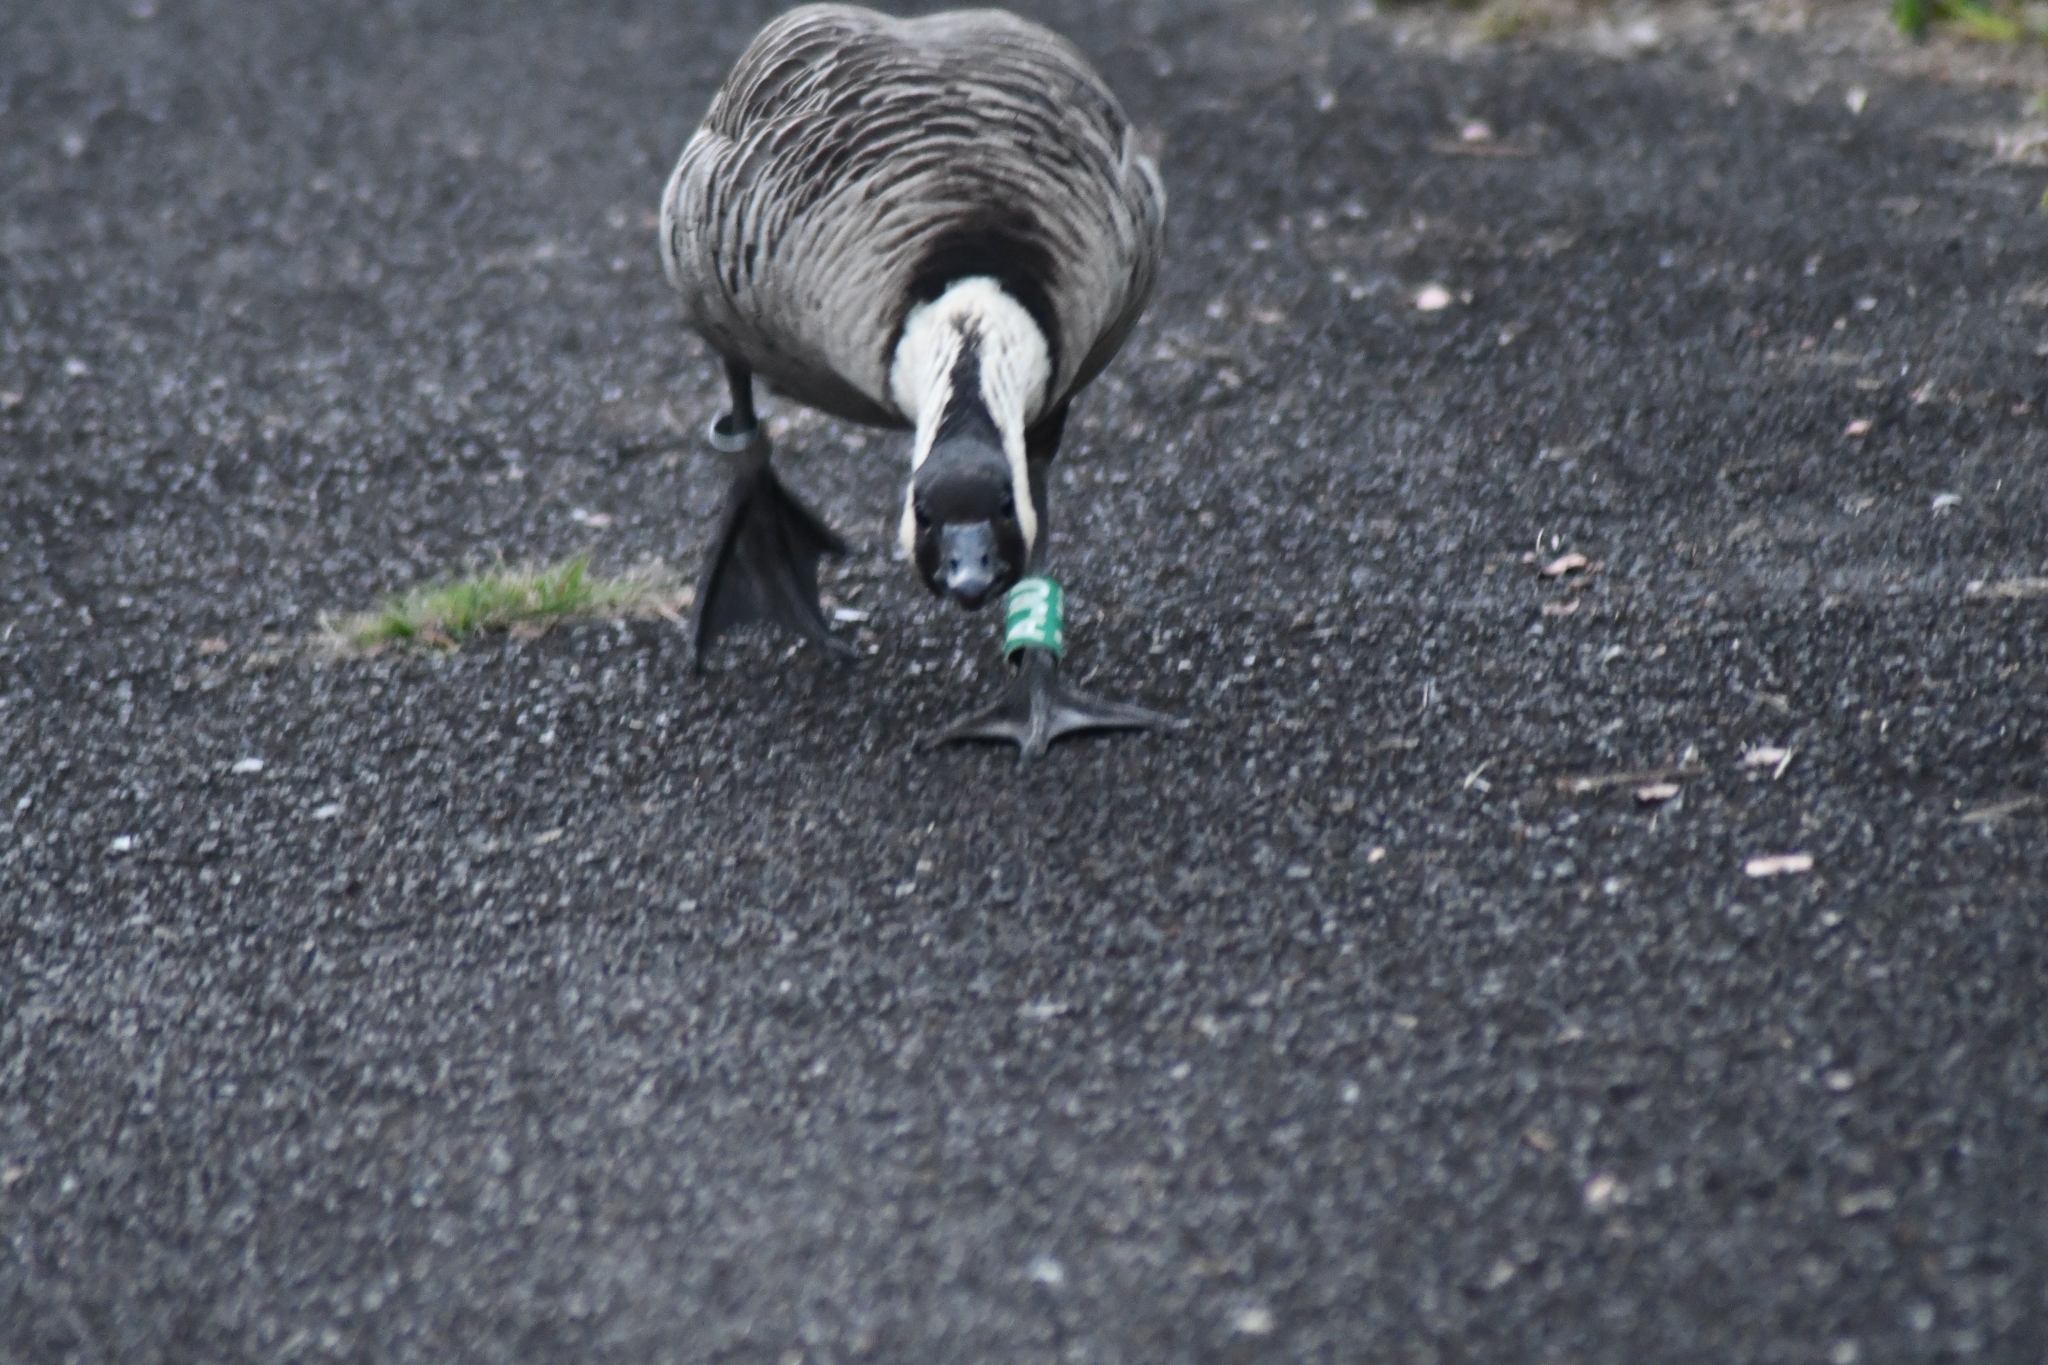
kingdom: Animalia
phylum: Chordata
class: Aves
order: Anseriformes
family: Anatidae
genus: Branta
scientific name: Branta sandvicensis
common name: Nene
